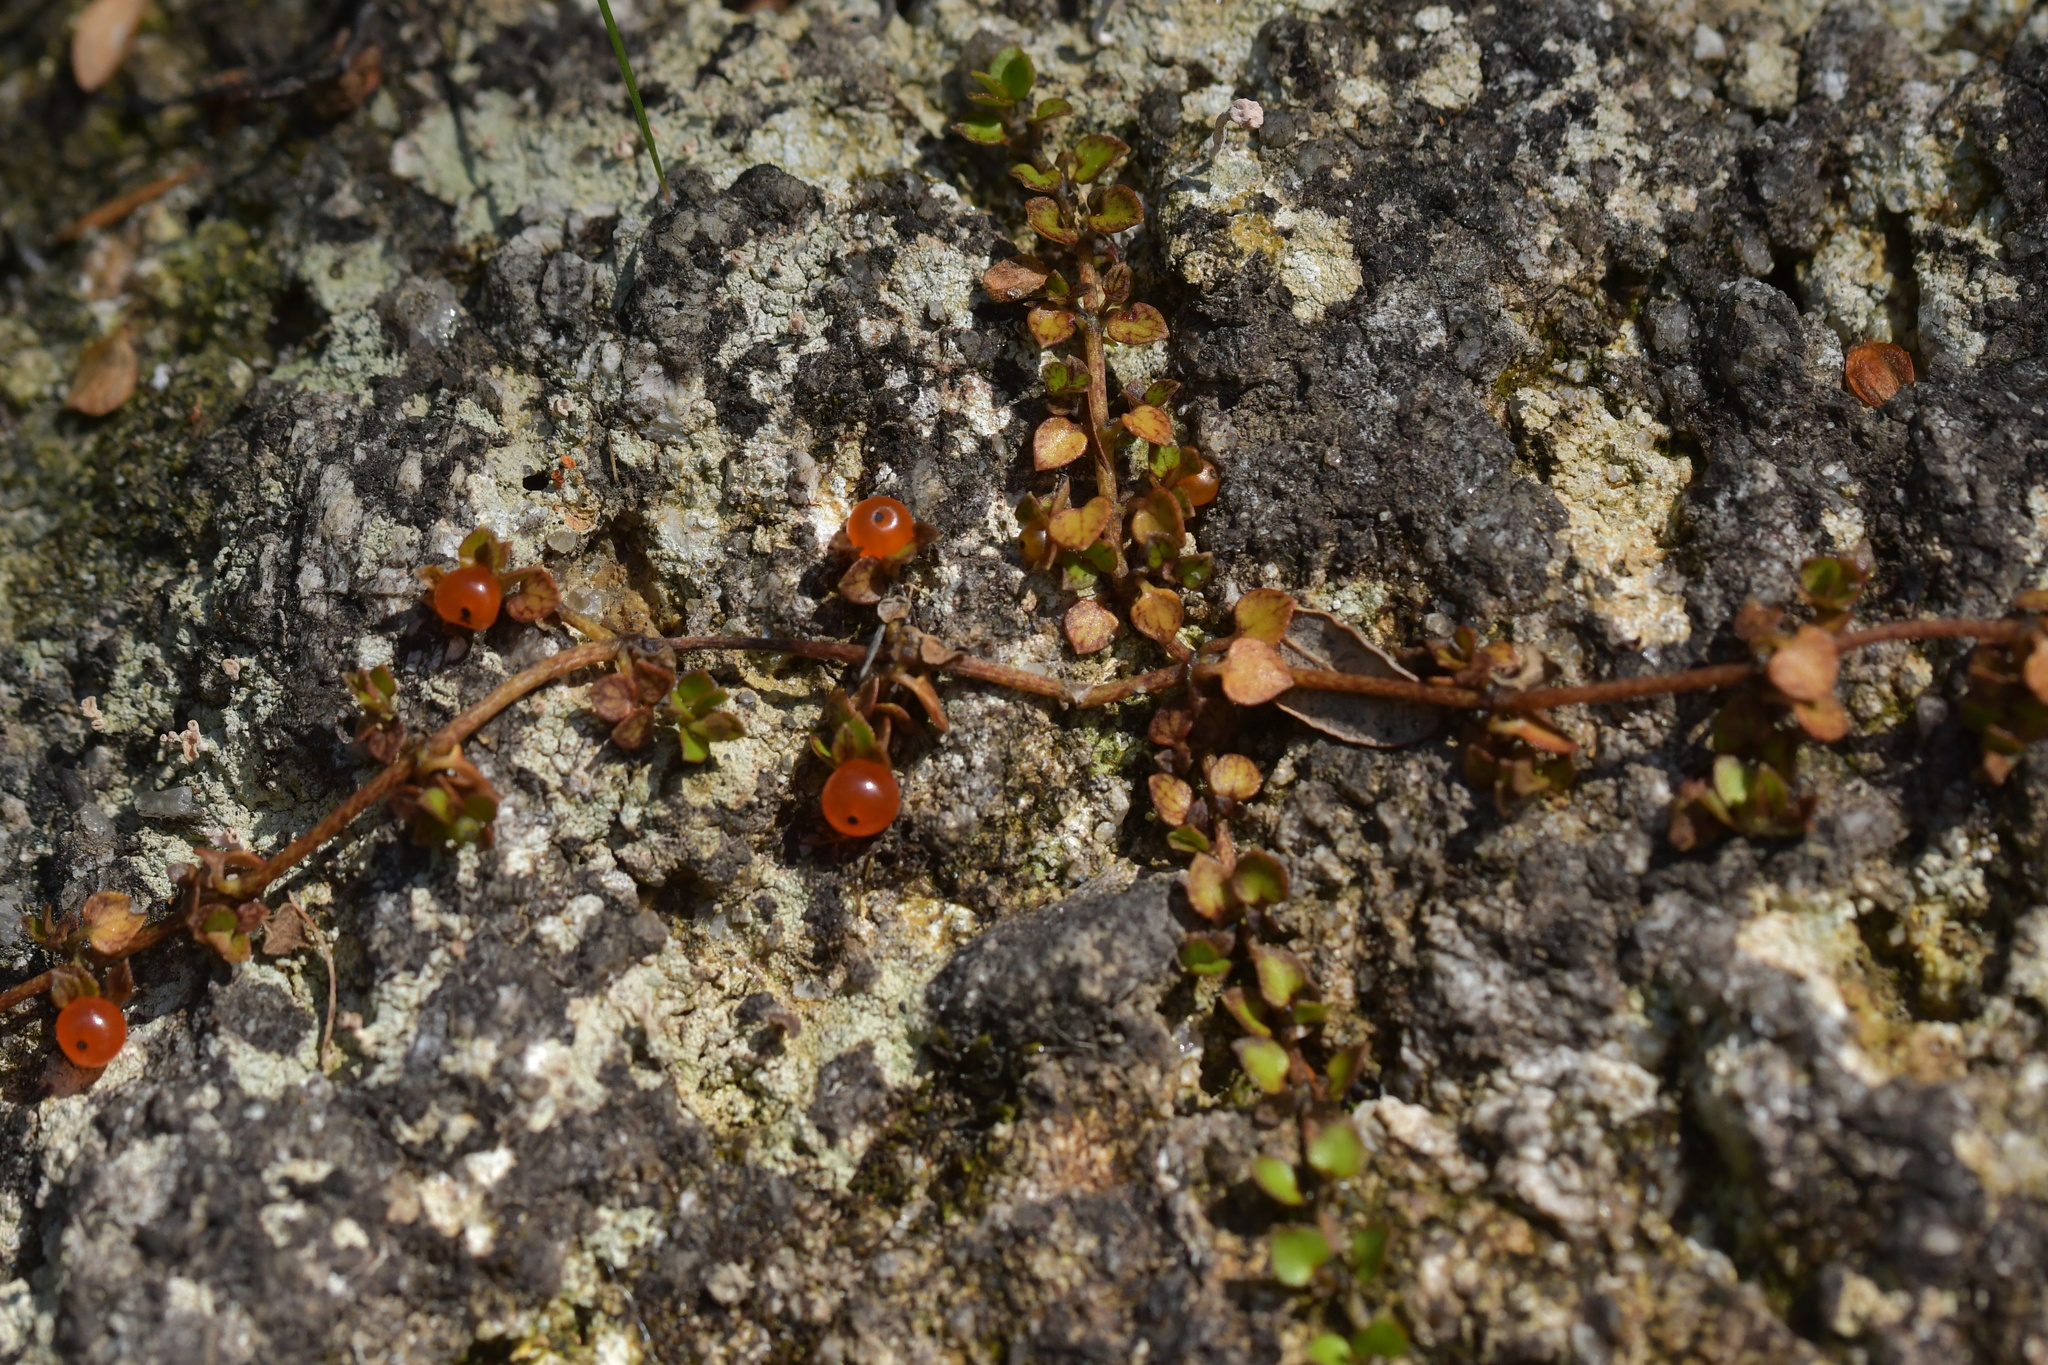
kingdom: Plantae
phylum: Tracheophyta
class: Magnoliopsida
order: Gentianales
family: Rubiaceae
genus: Nertera
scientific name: Nertera granadensis
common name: Beadplant
